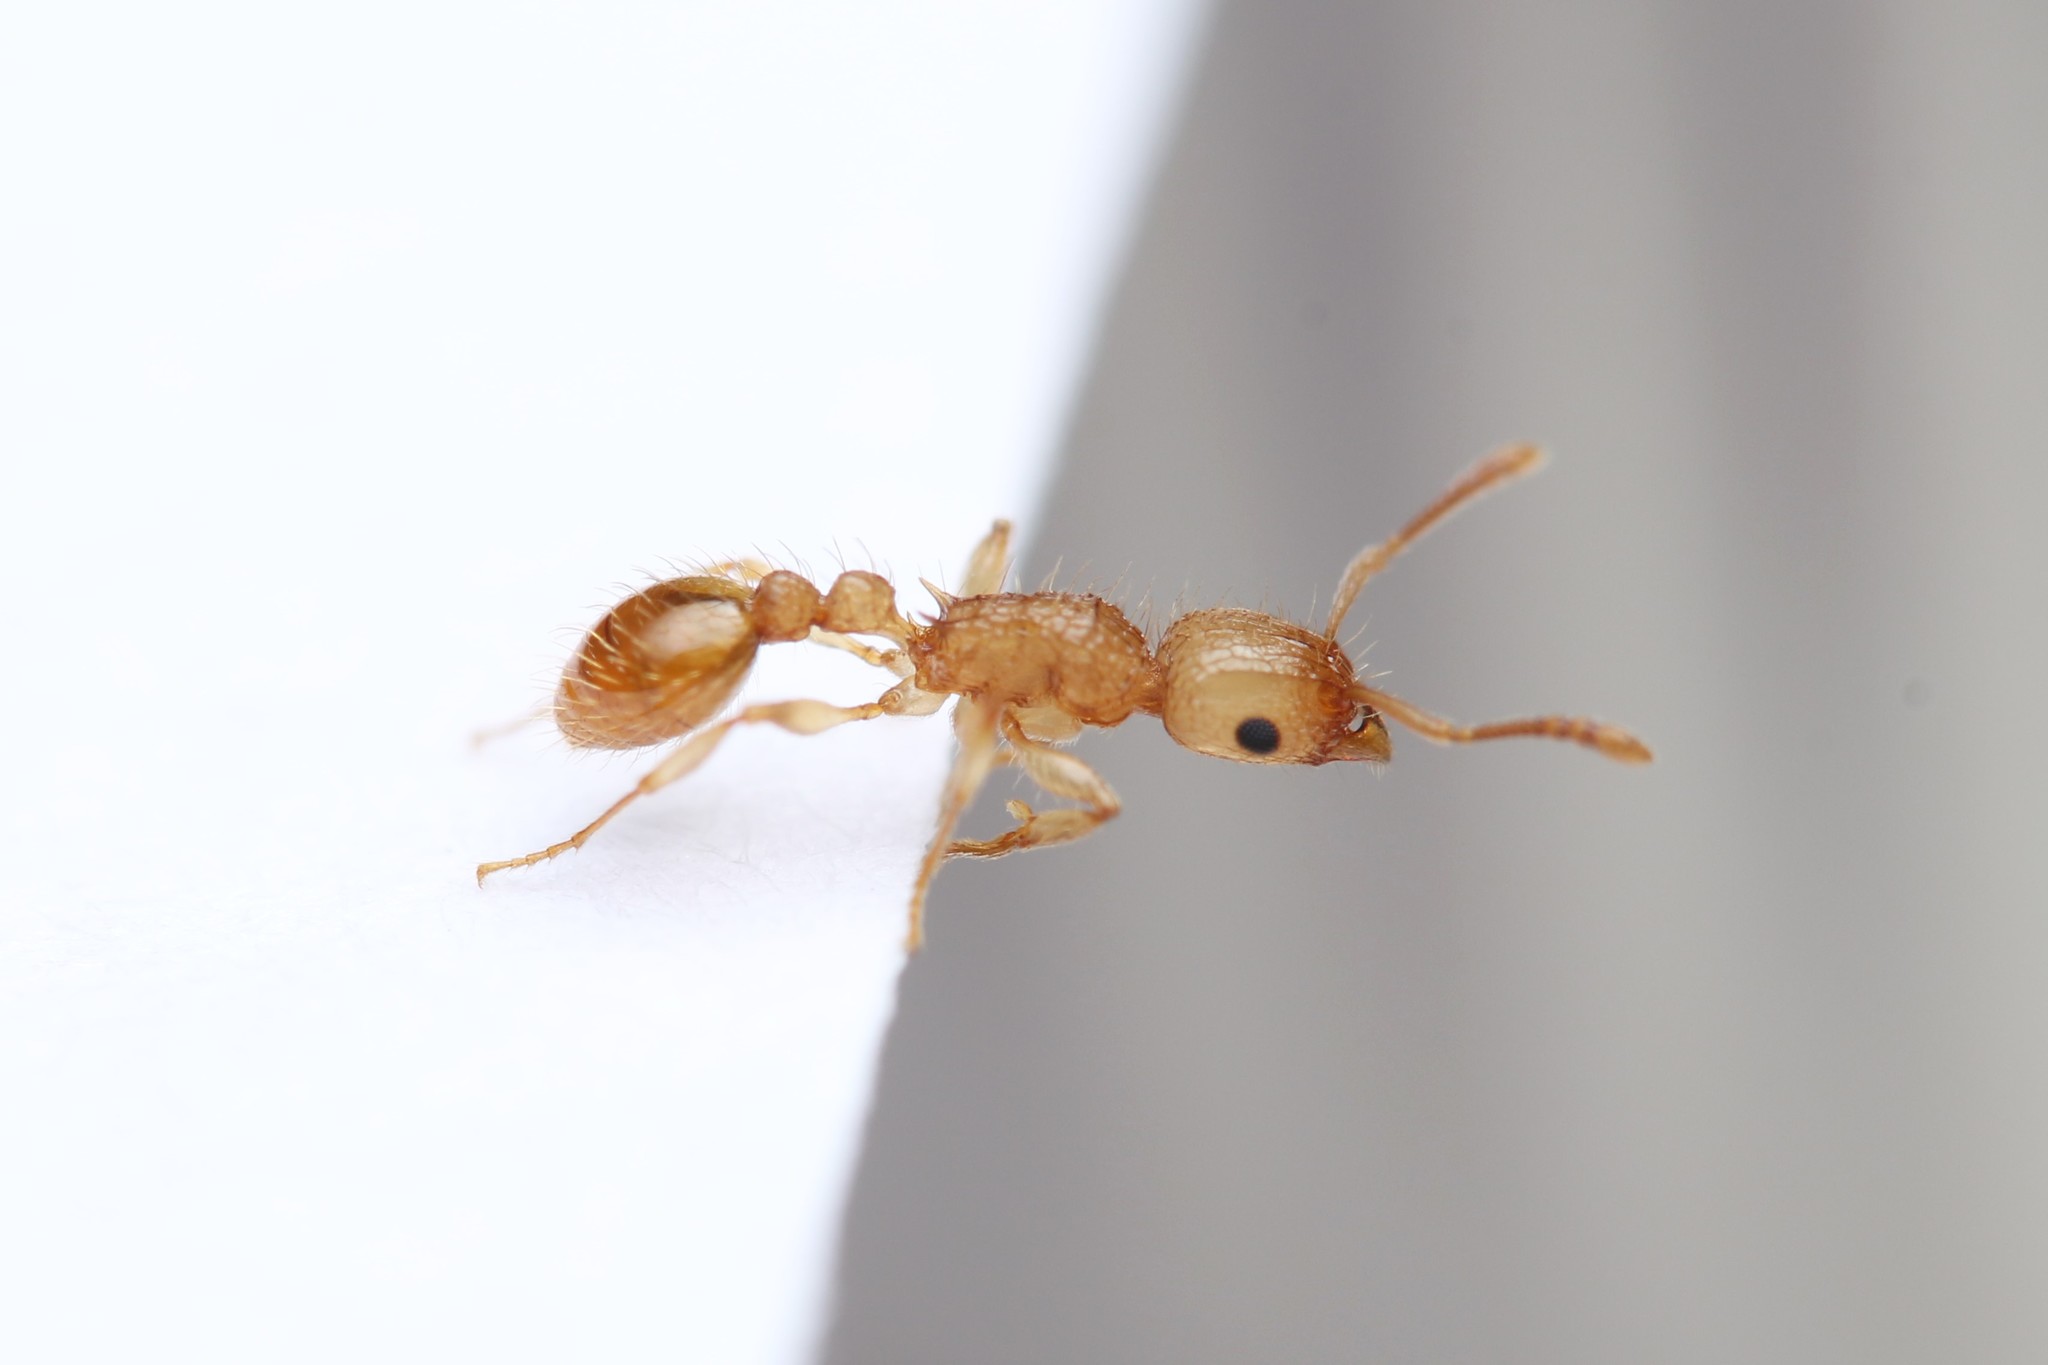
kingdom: Animalia
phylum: Arthropoda
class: Insecta
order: Hymenoptera
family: Formicidae
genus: Tetramorium
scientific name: Tetramorium nipponense
